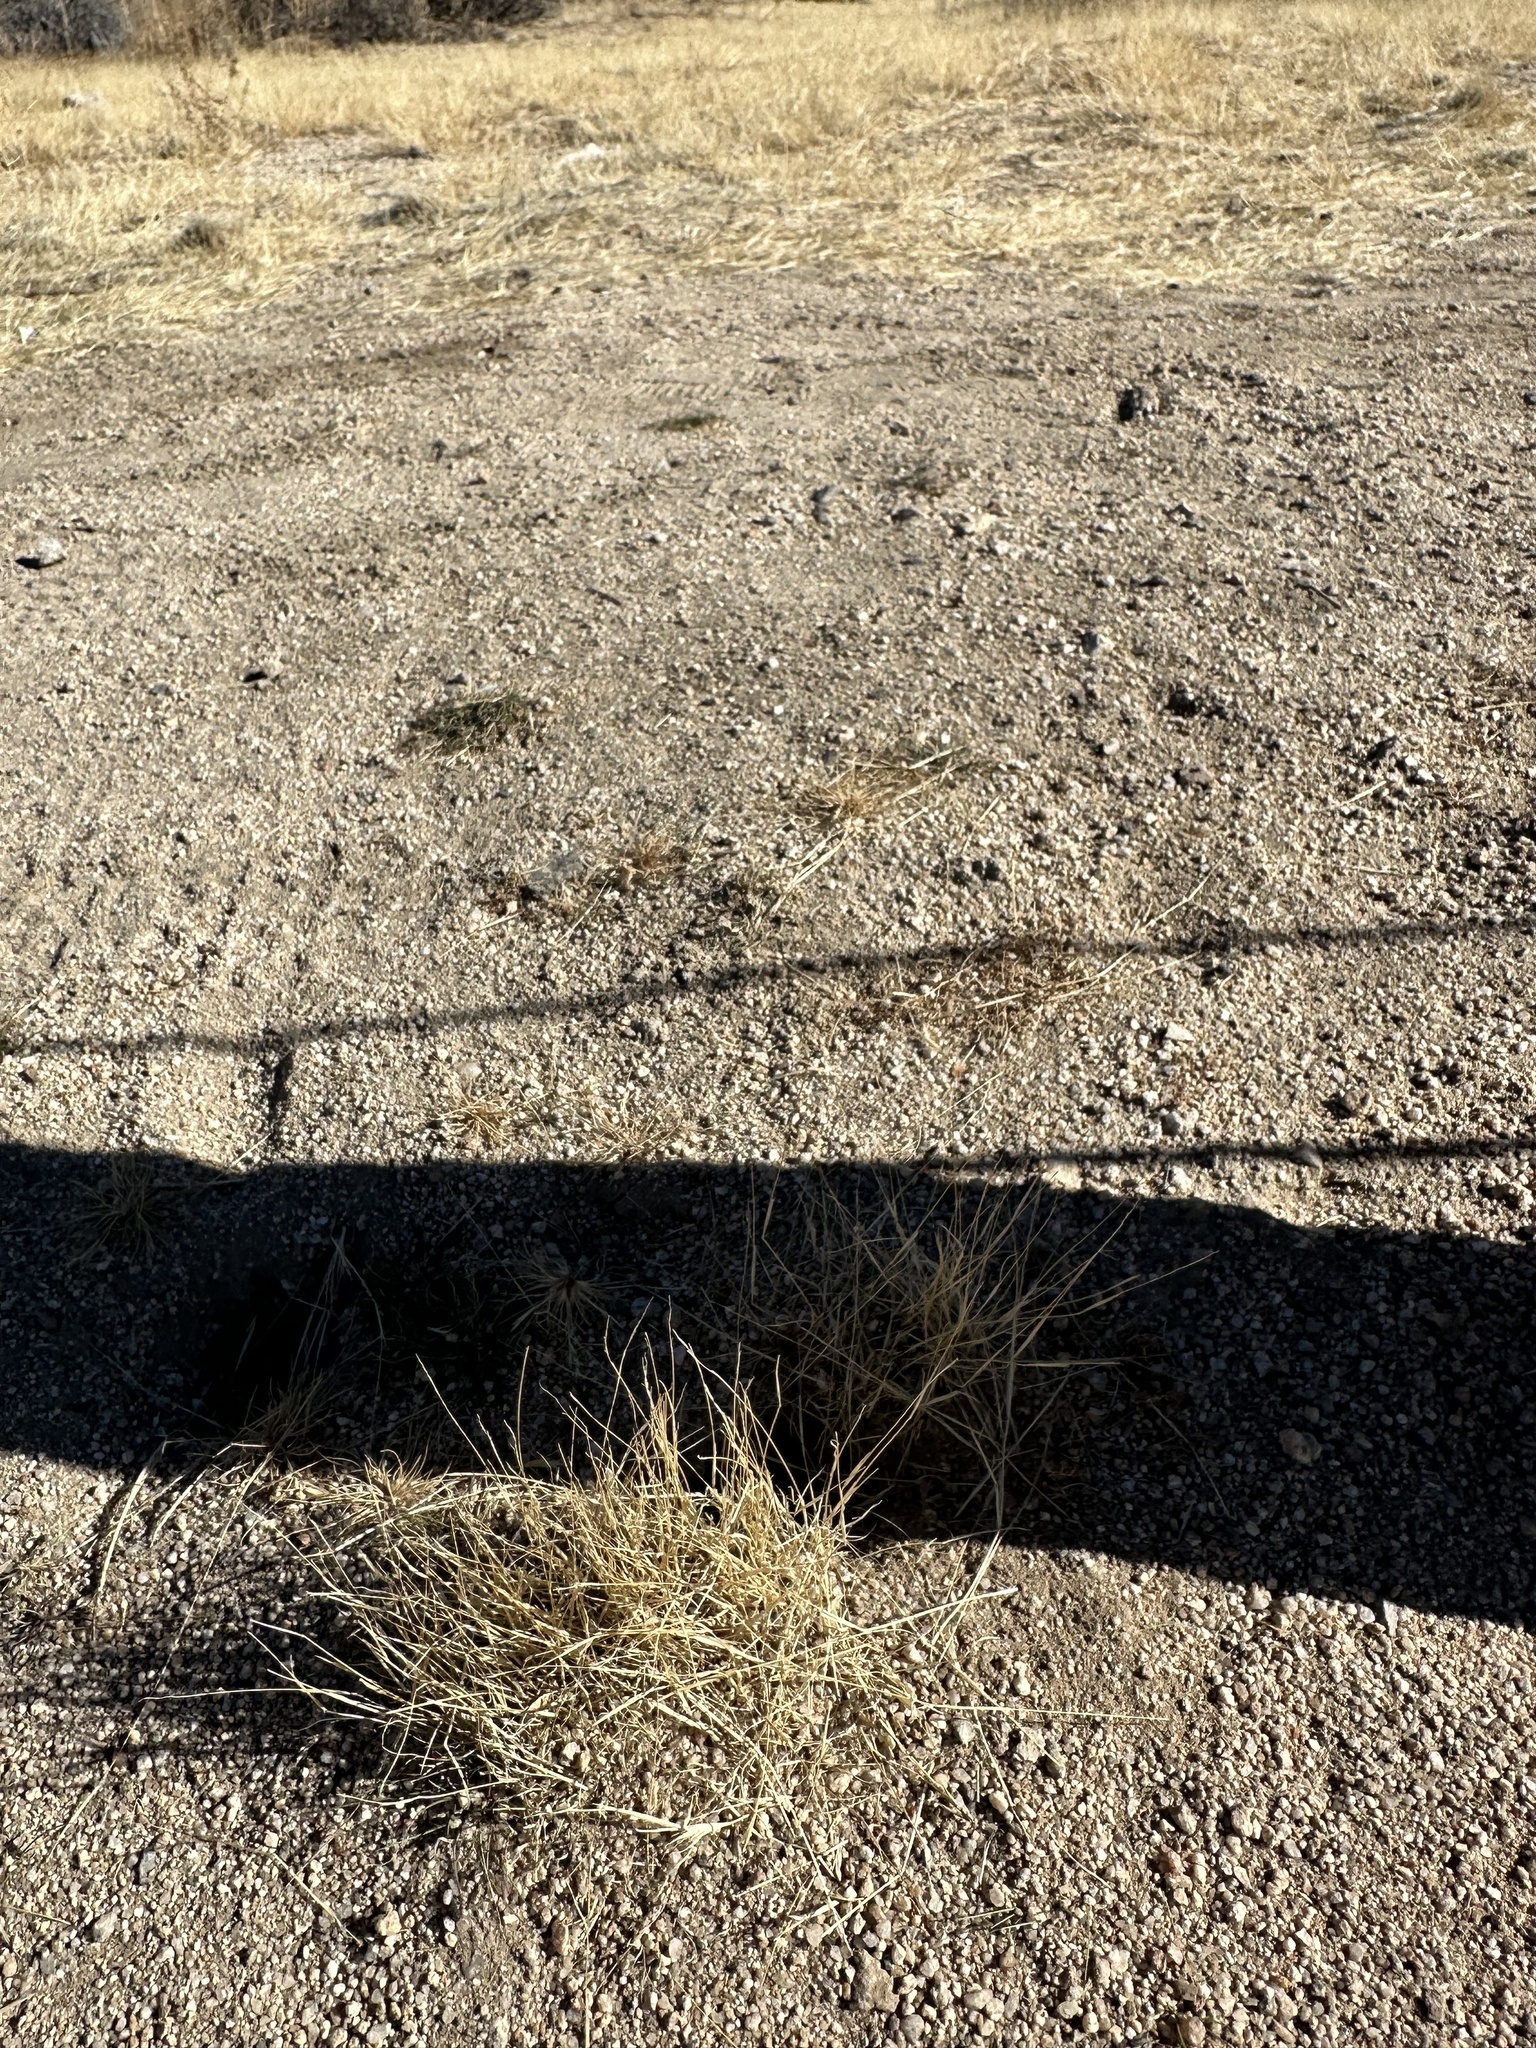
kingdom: Plantae
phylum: Tracheophyta
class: Liliopsida
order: Poales
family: Poaceae
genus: Schismus
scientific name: Schismus barbatus
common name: Kelch-grass
